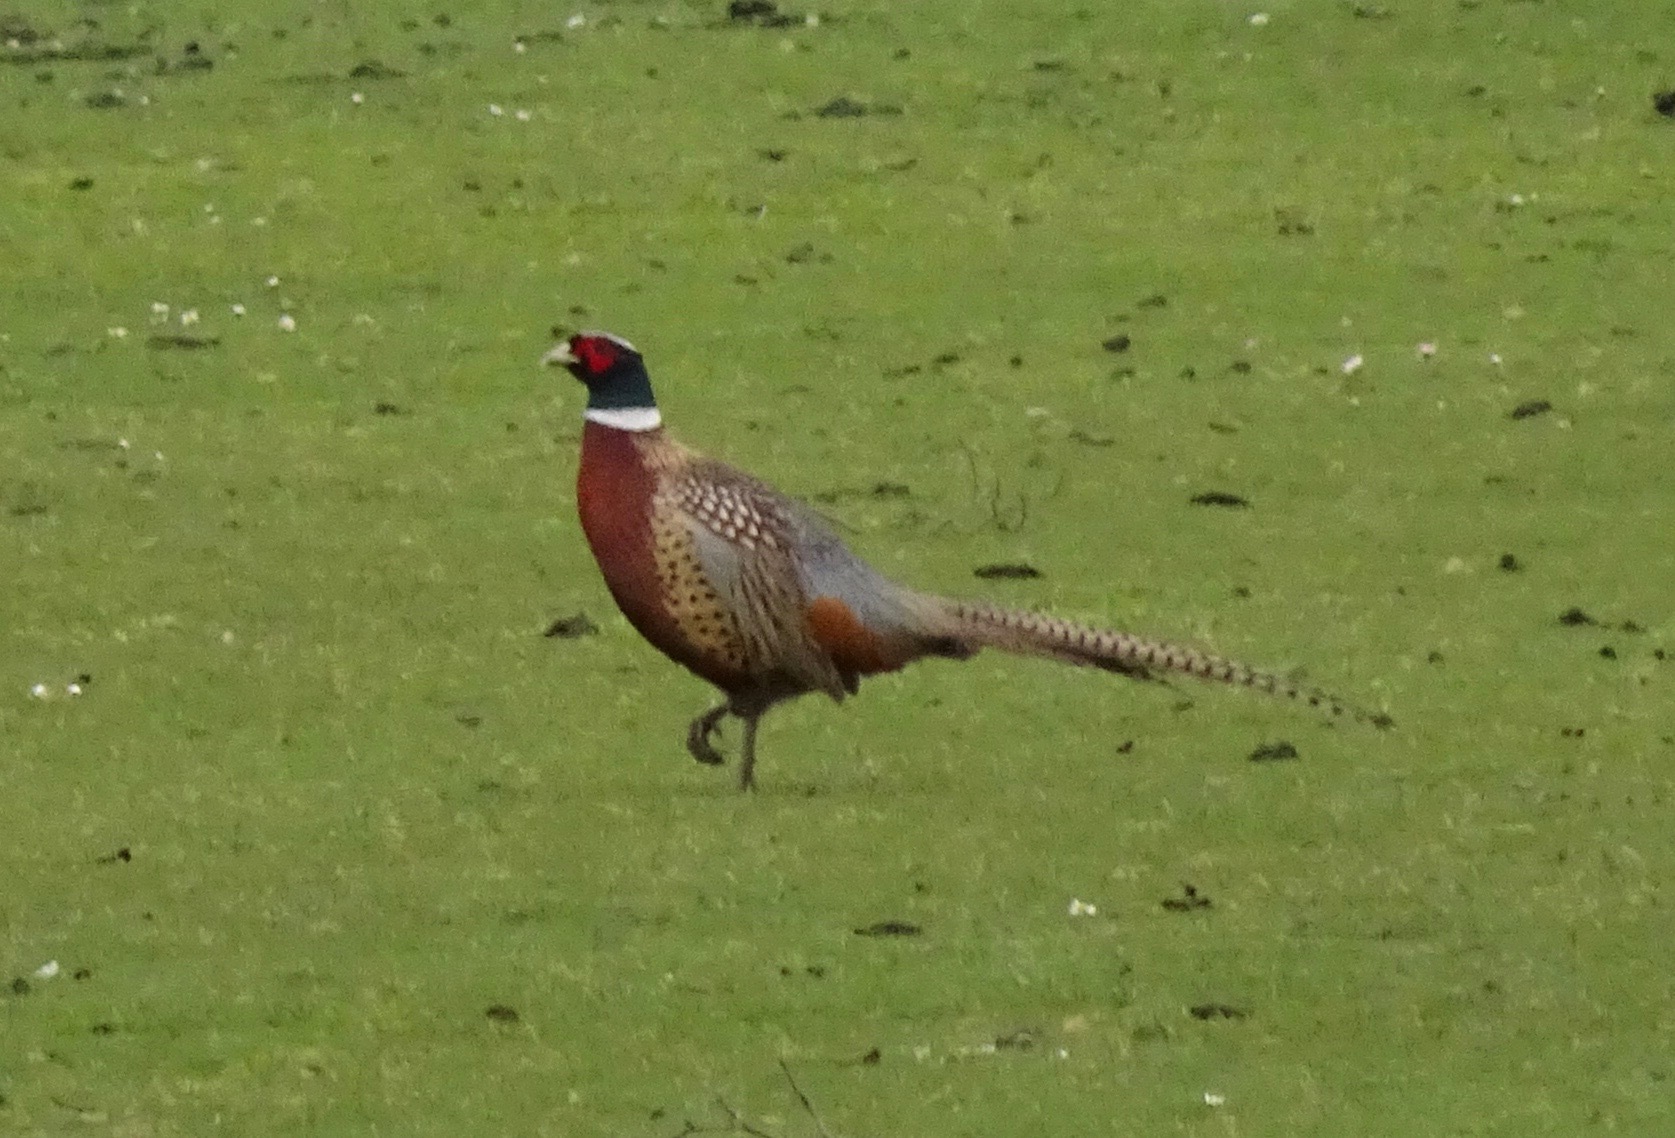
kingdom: Animalia
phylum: Chordata
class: Aves
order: Galliformes
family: Phasianidae
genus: Phasianus
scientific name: Phasianus colchicus
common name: Common pheasant
